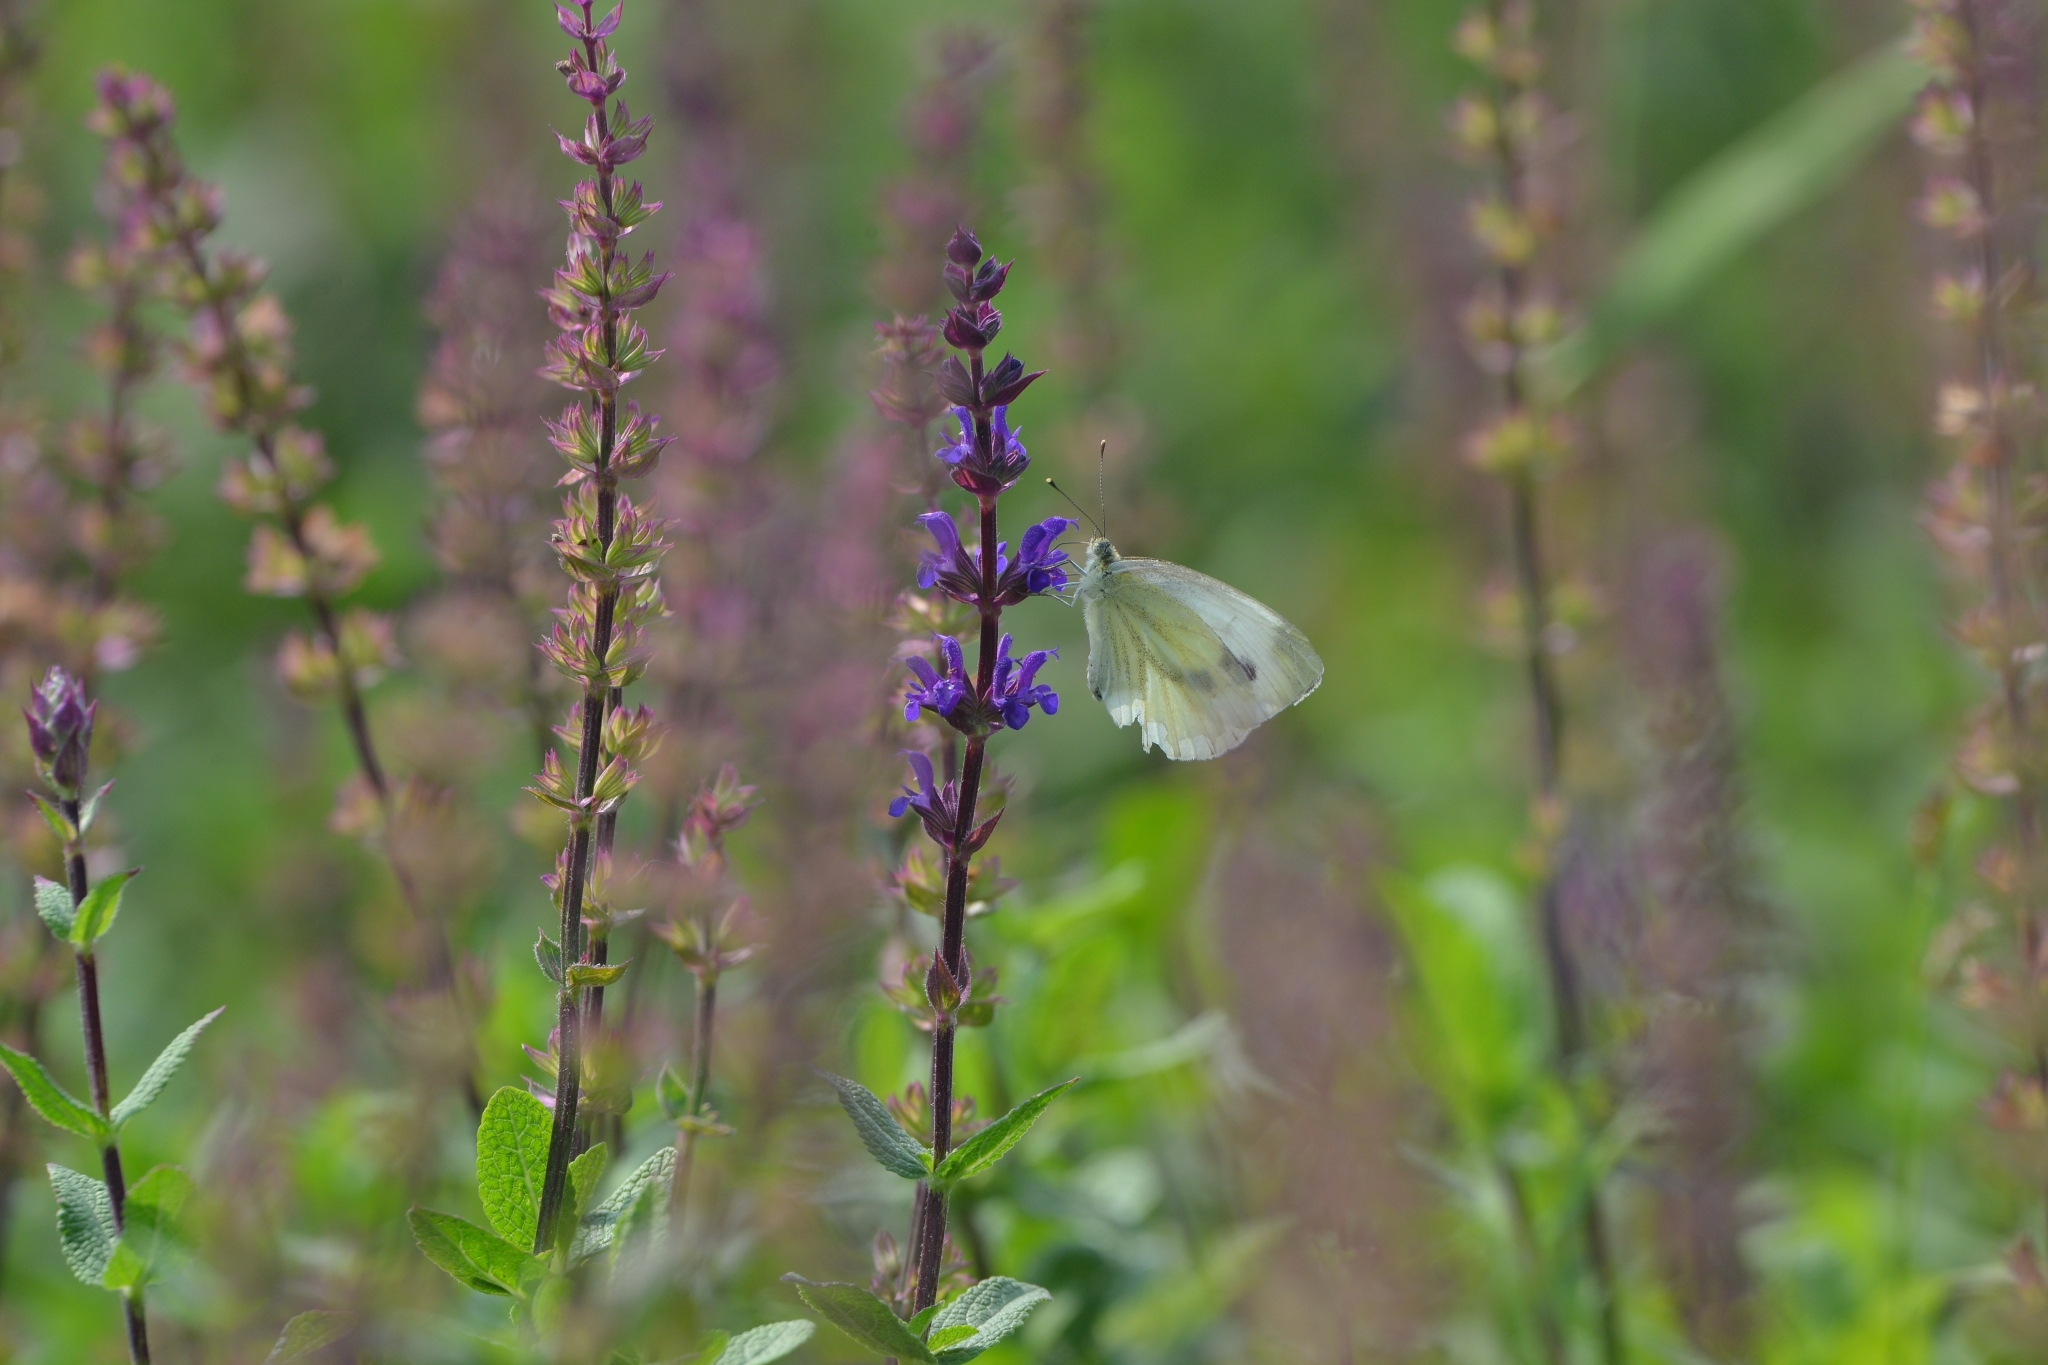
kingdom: Animalia
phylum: Arthropoda
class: Insecta
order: Lepidoptera
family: Pieridae
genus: Pieris
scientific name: Pieris napi
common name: Green-veined white
